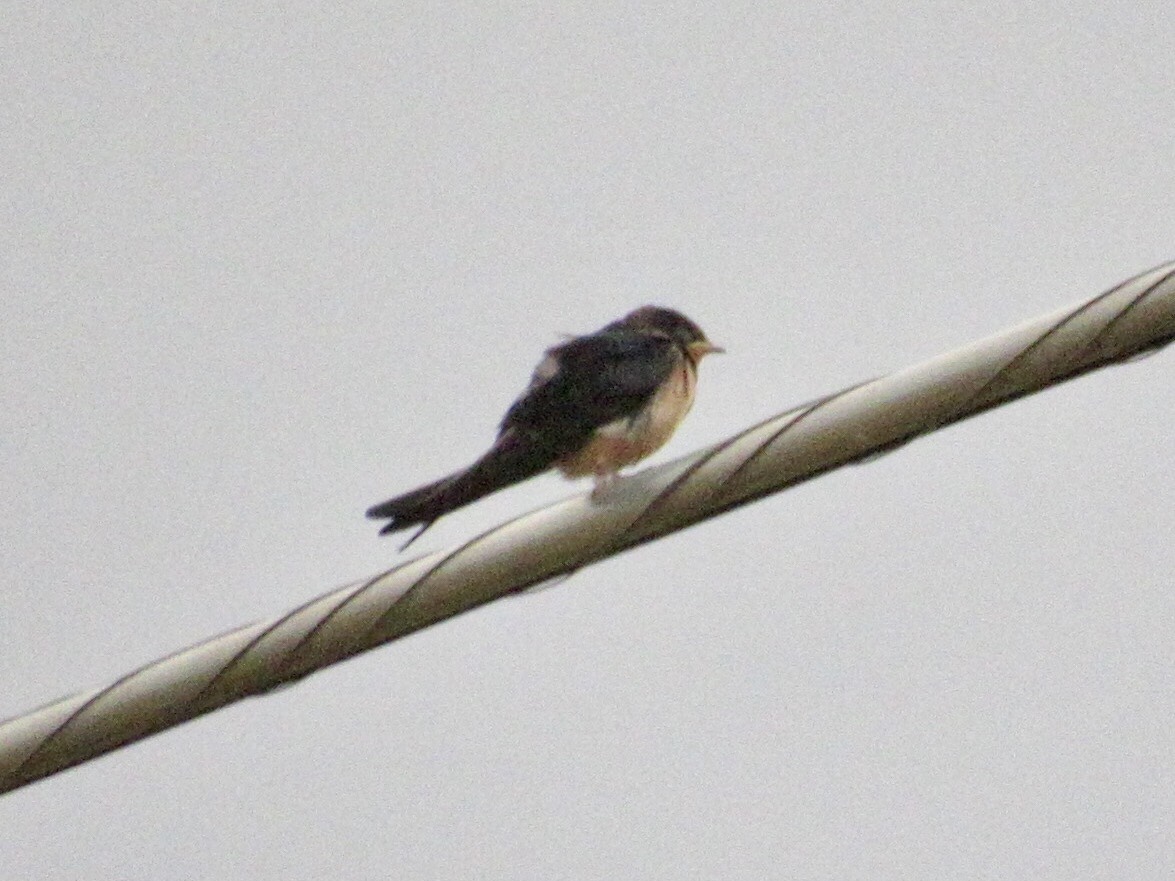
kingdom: Animalia
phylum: Chordata
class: Aves
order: Passeriformes
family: Hirundinidae
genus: Hirundo
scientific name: Hirundo rustica
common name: Barn swallow
